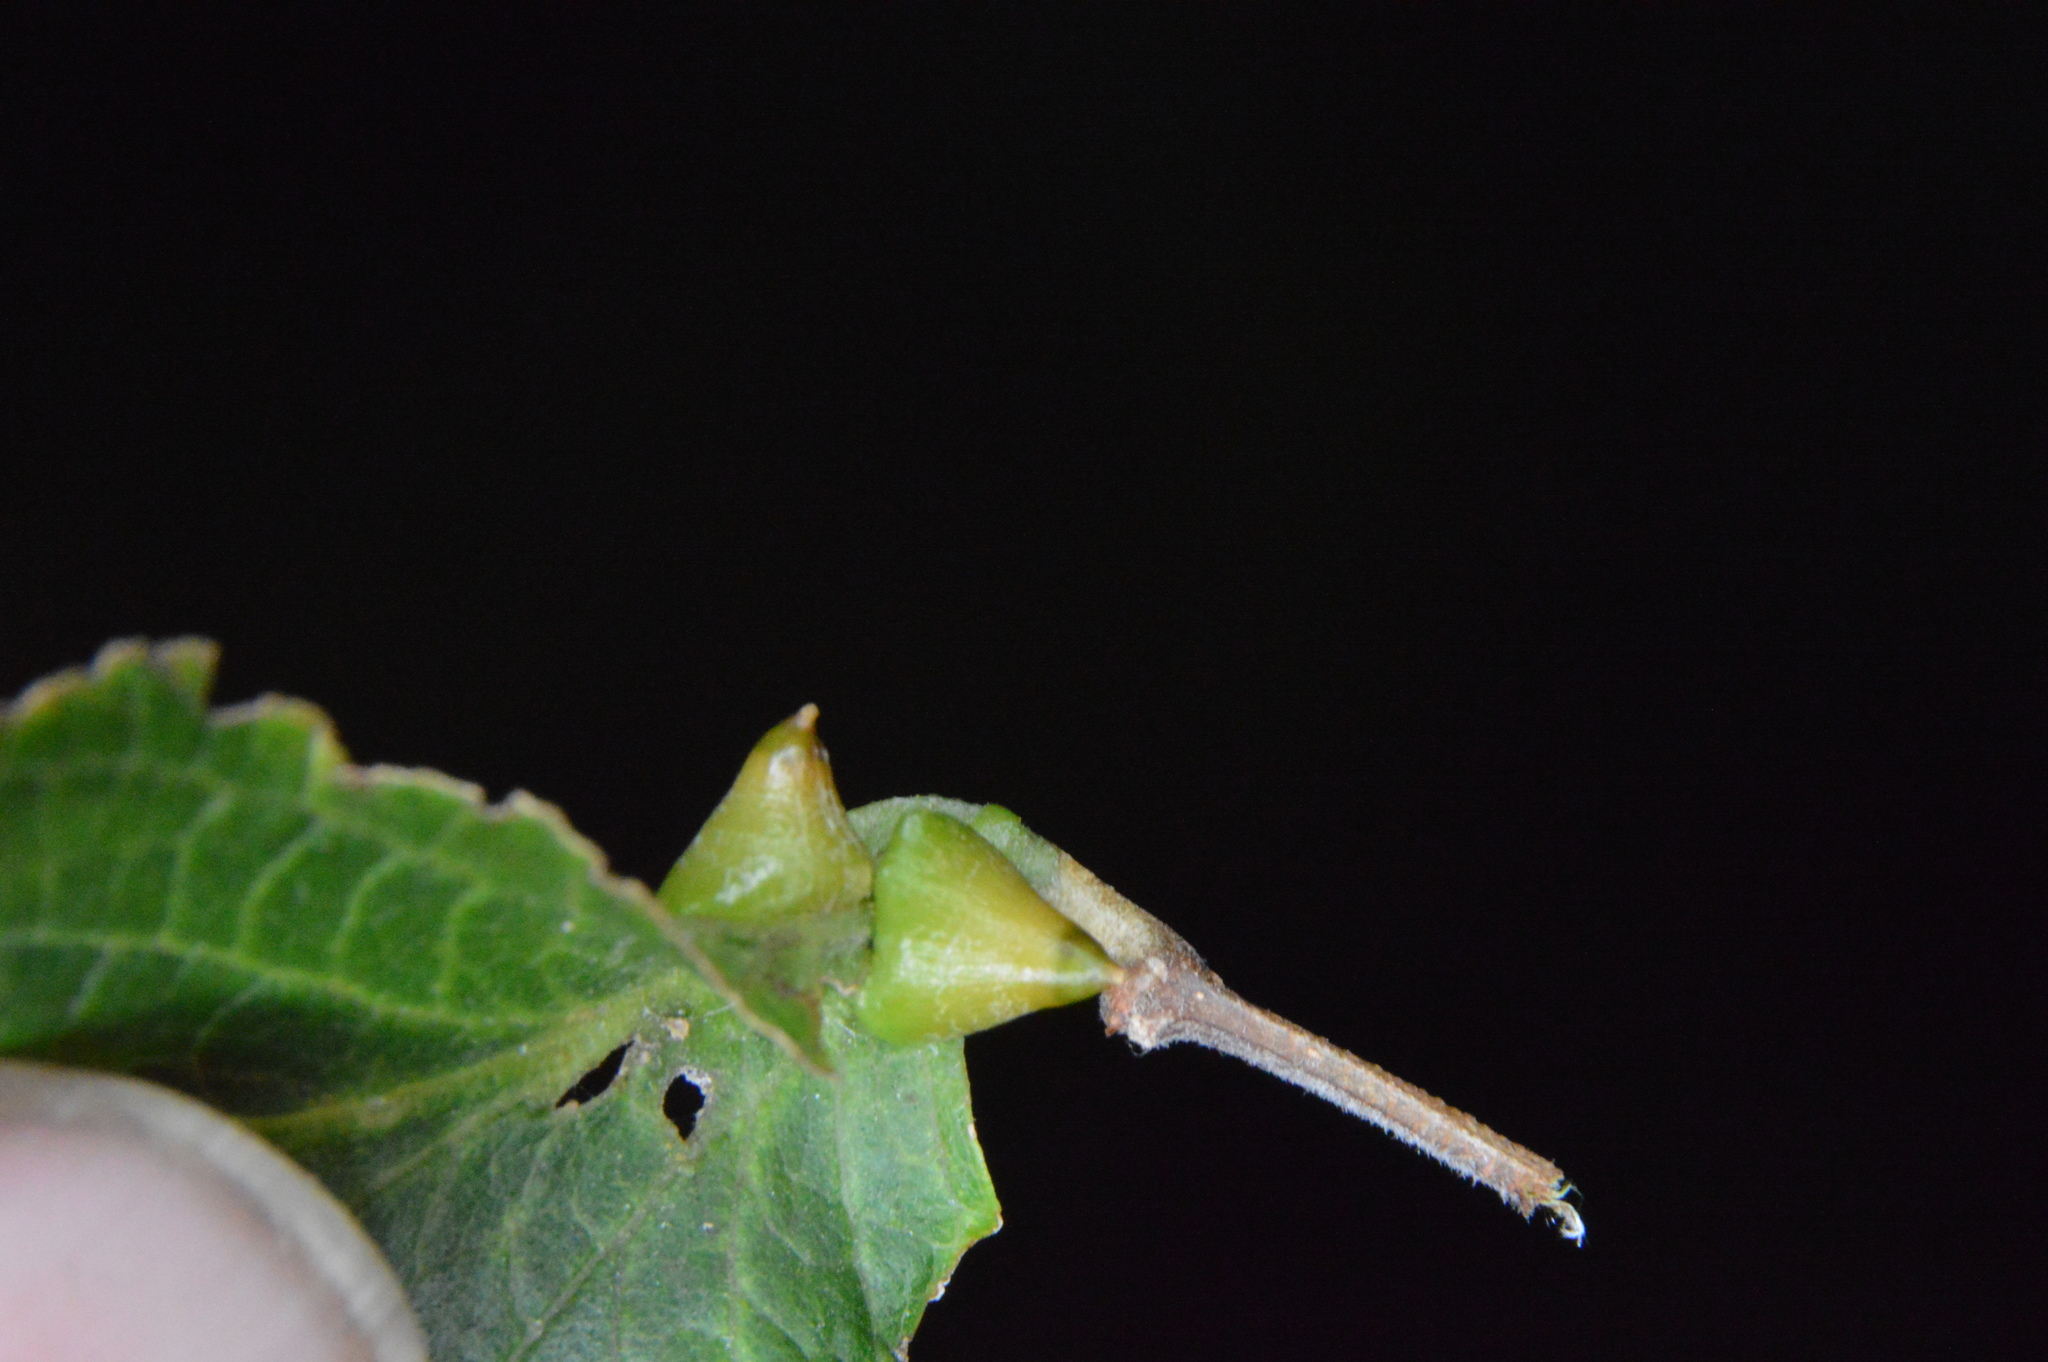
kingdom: Animalia
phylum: Arthropoda
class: Insecta
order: Diptera
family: Cecidomyiidae
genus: Celticecis
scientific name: Celticecis spiniformis
